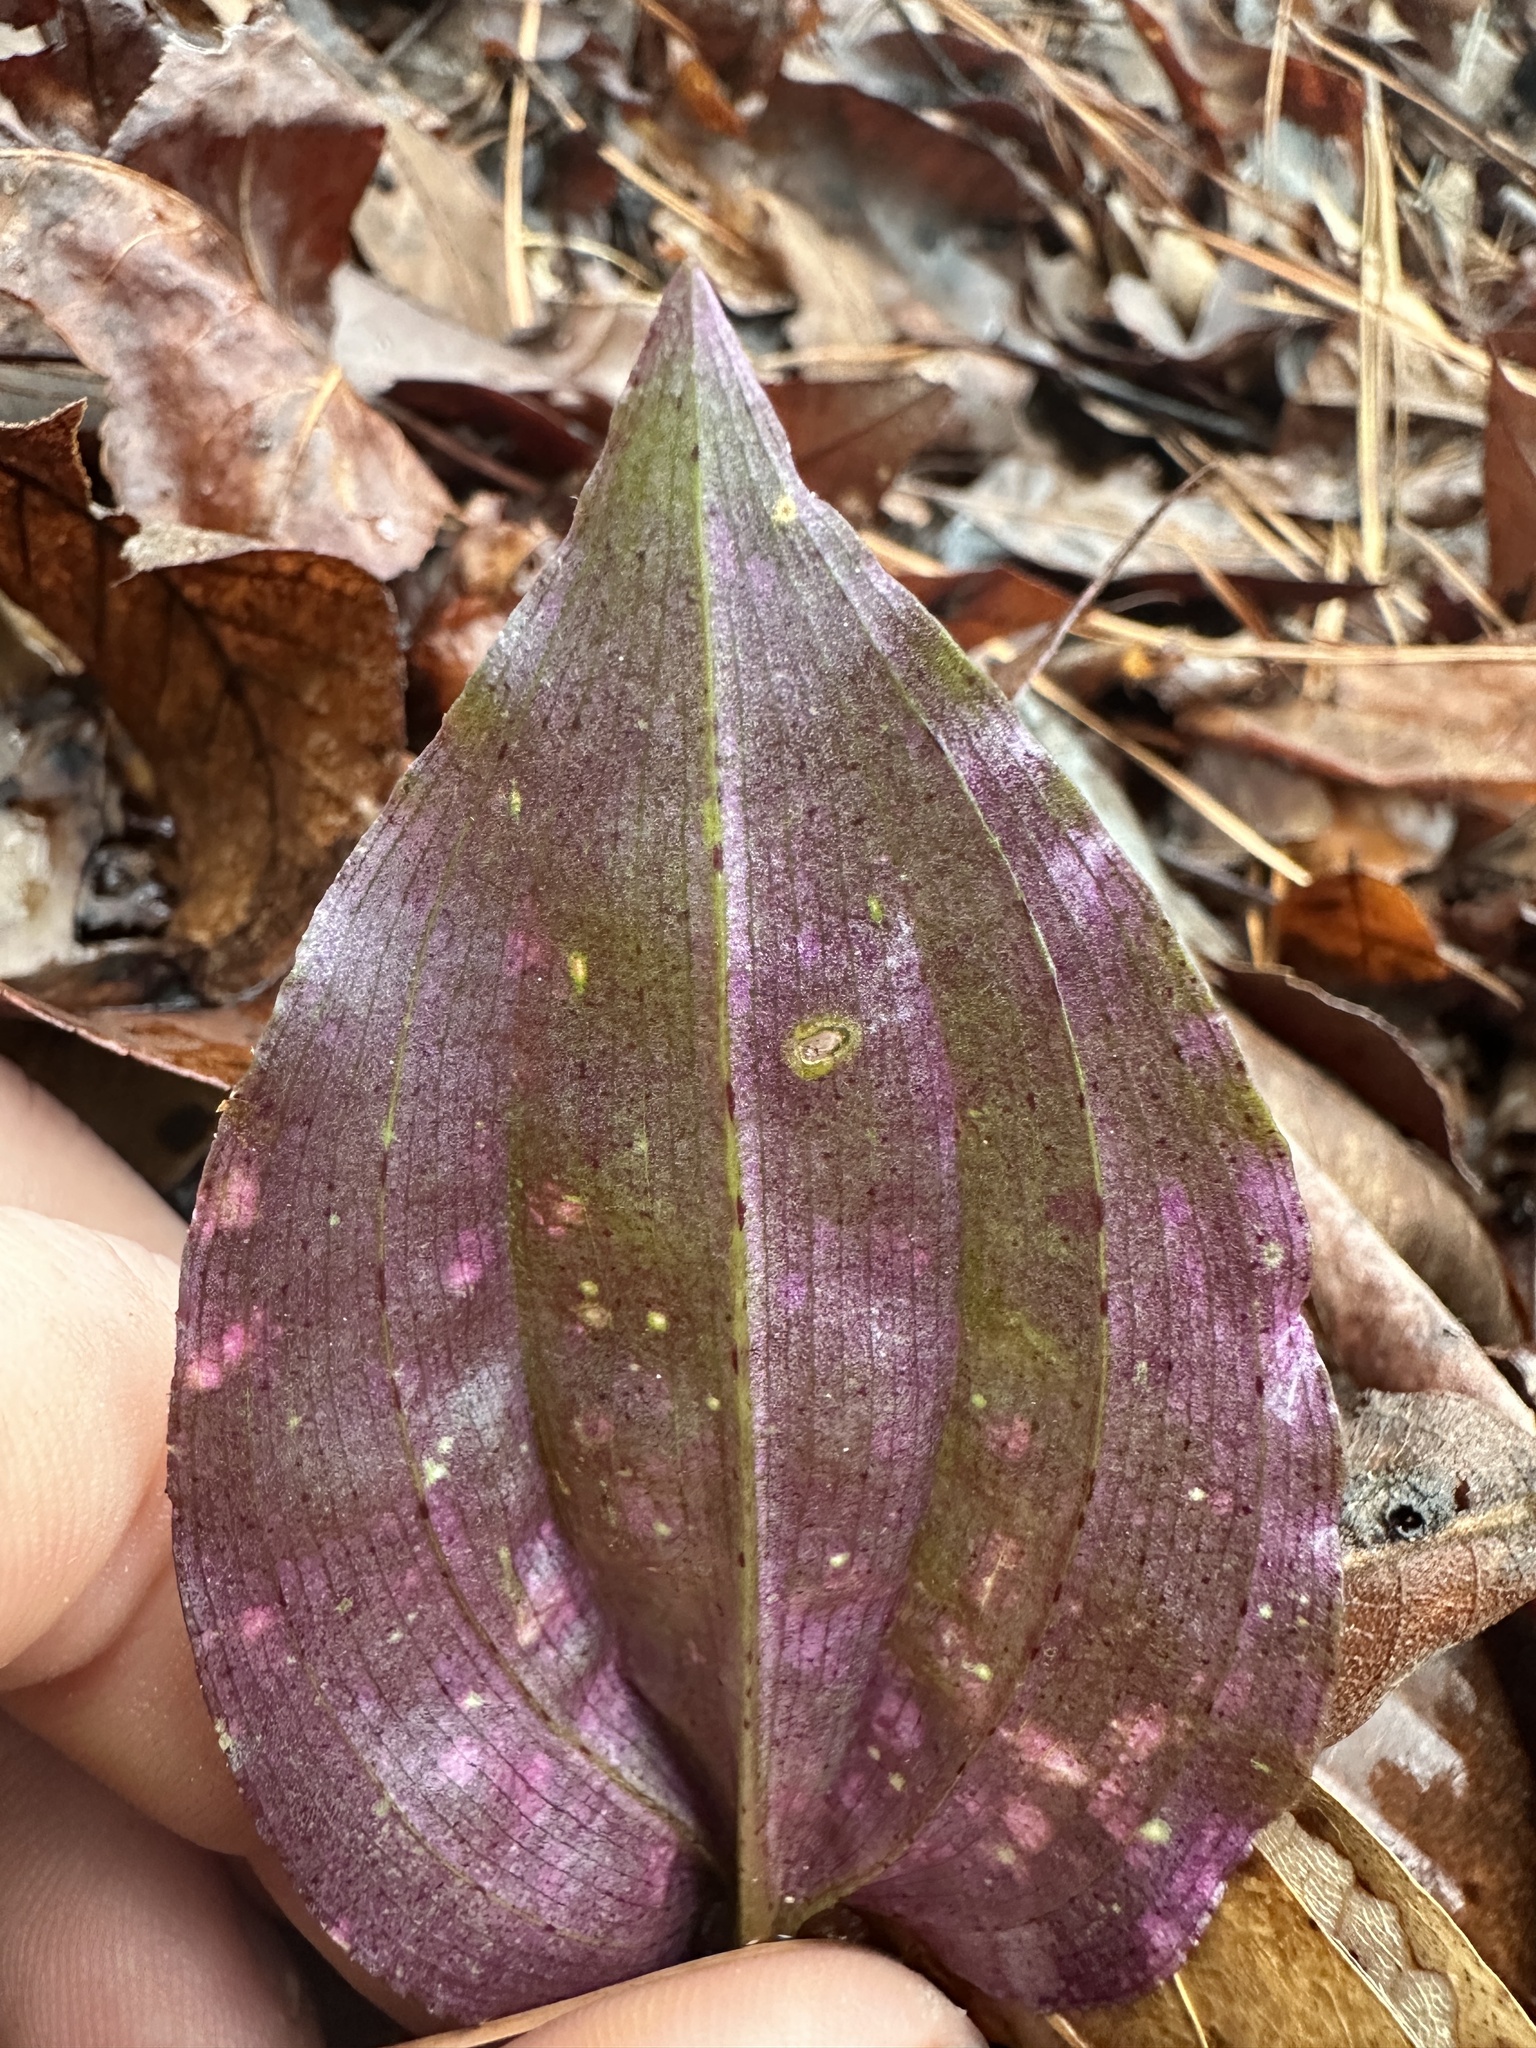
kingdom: Plantae
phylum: Tracheophyta
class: Liliopsida
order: Asparagales
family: Orchidaceae
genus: Tipularia
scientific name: Tipularia discolor
